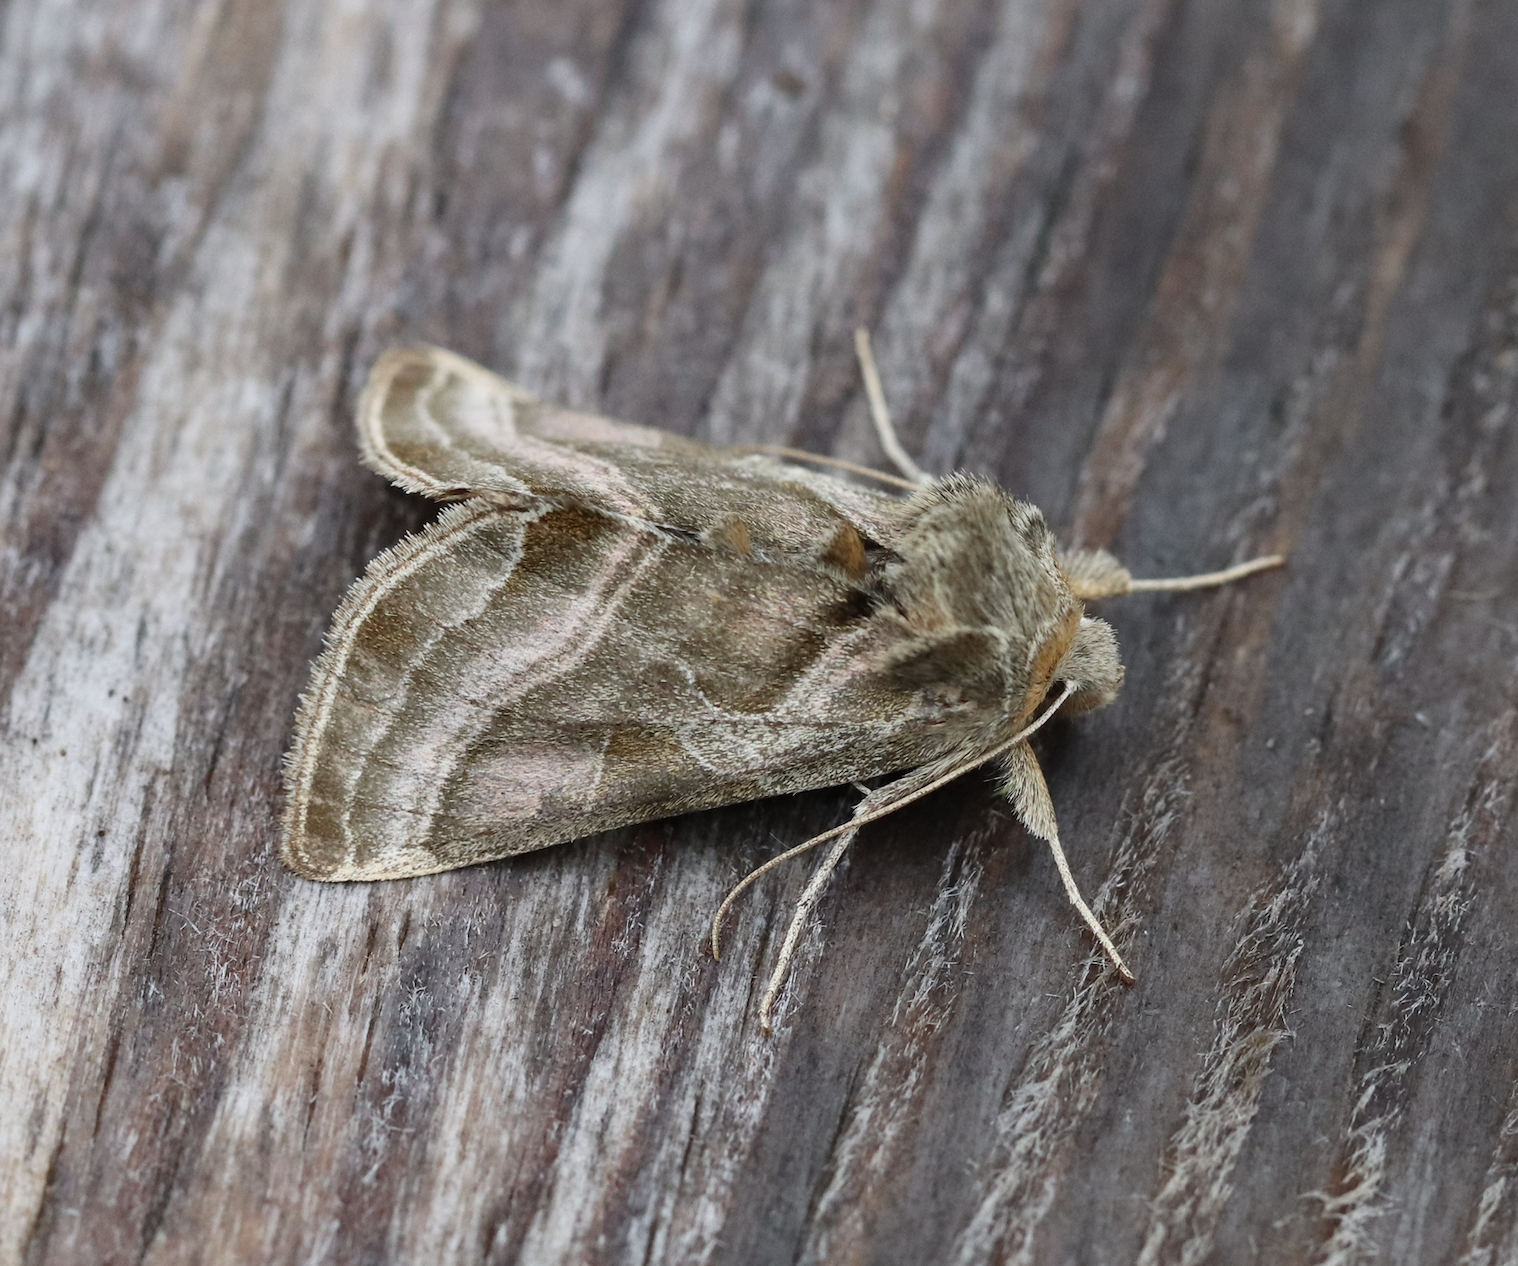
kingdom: Animalia
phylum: Arthropoda
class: Insecta
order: Lepidoptera
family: Noctuidae
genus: Euchalcia
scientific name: Euchalcia variabilis
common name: Purple-shaded gem
